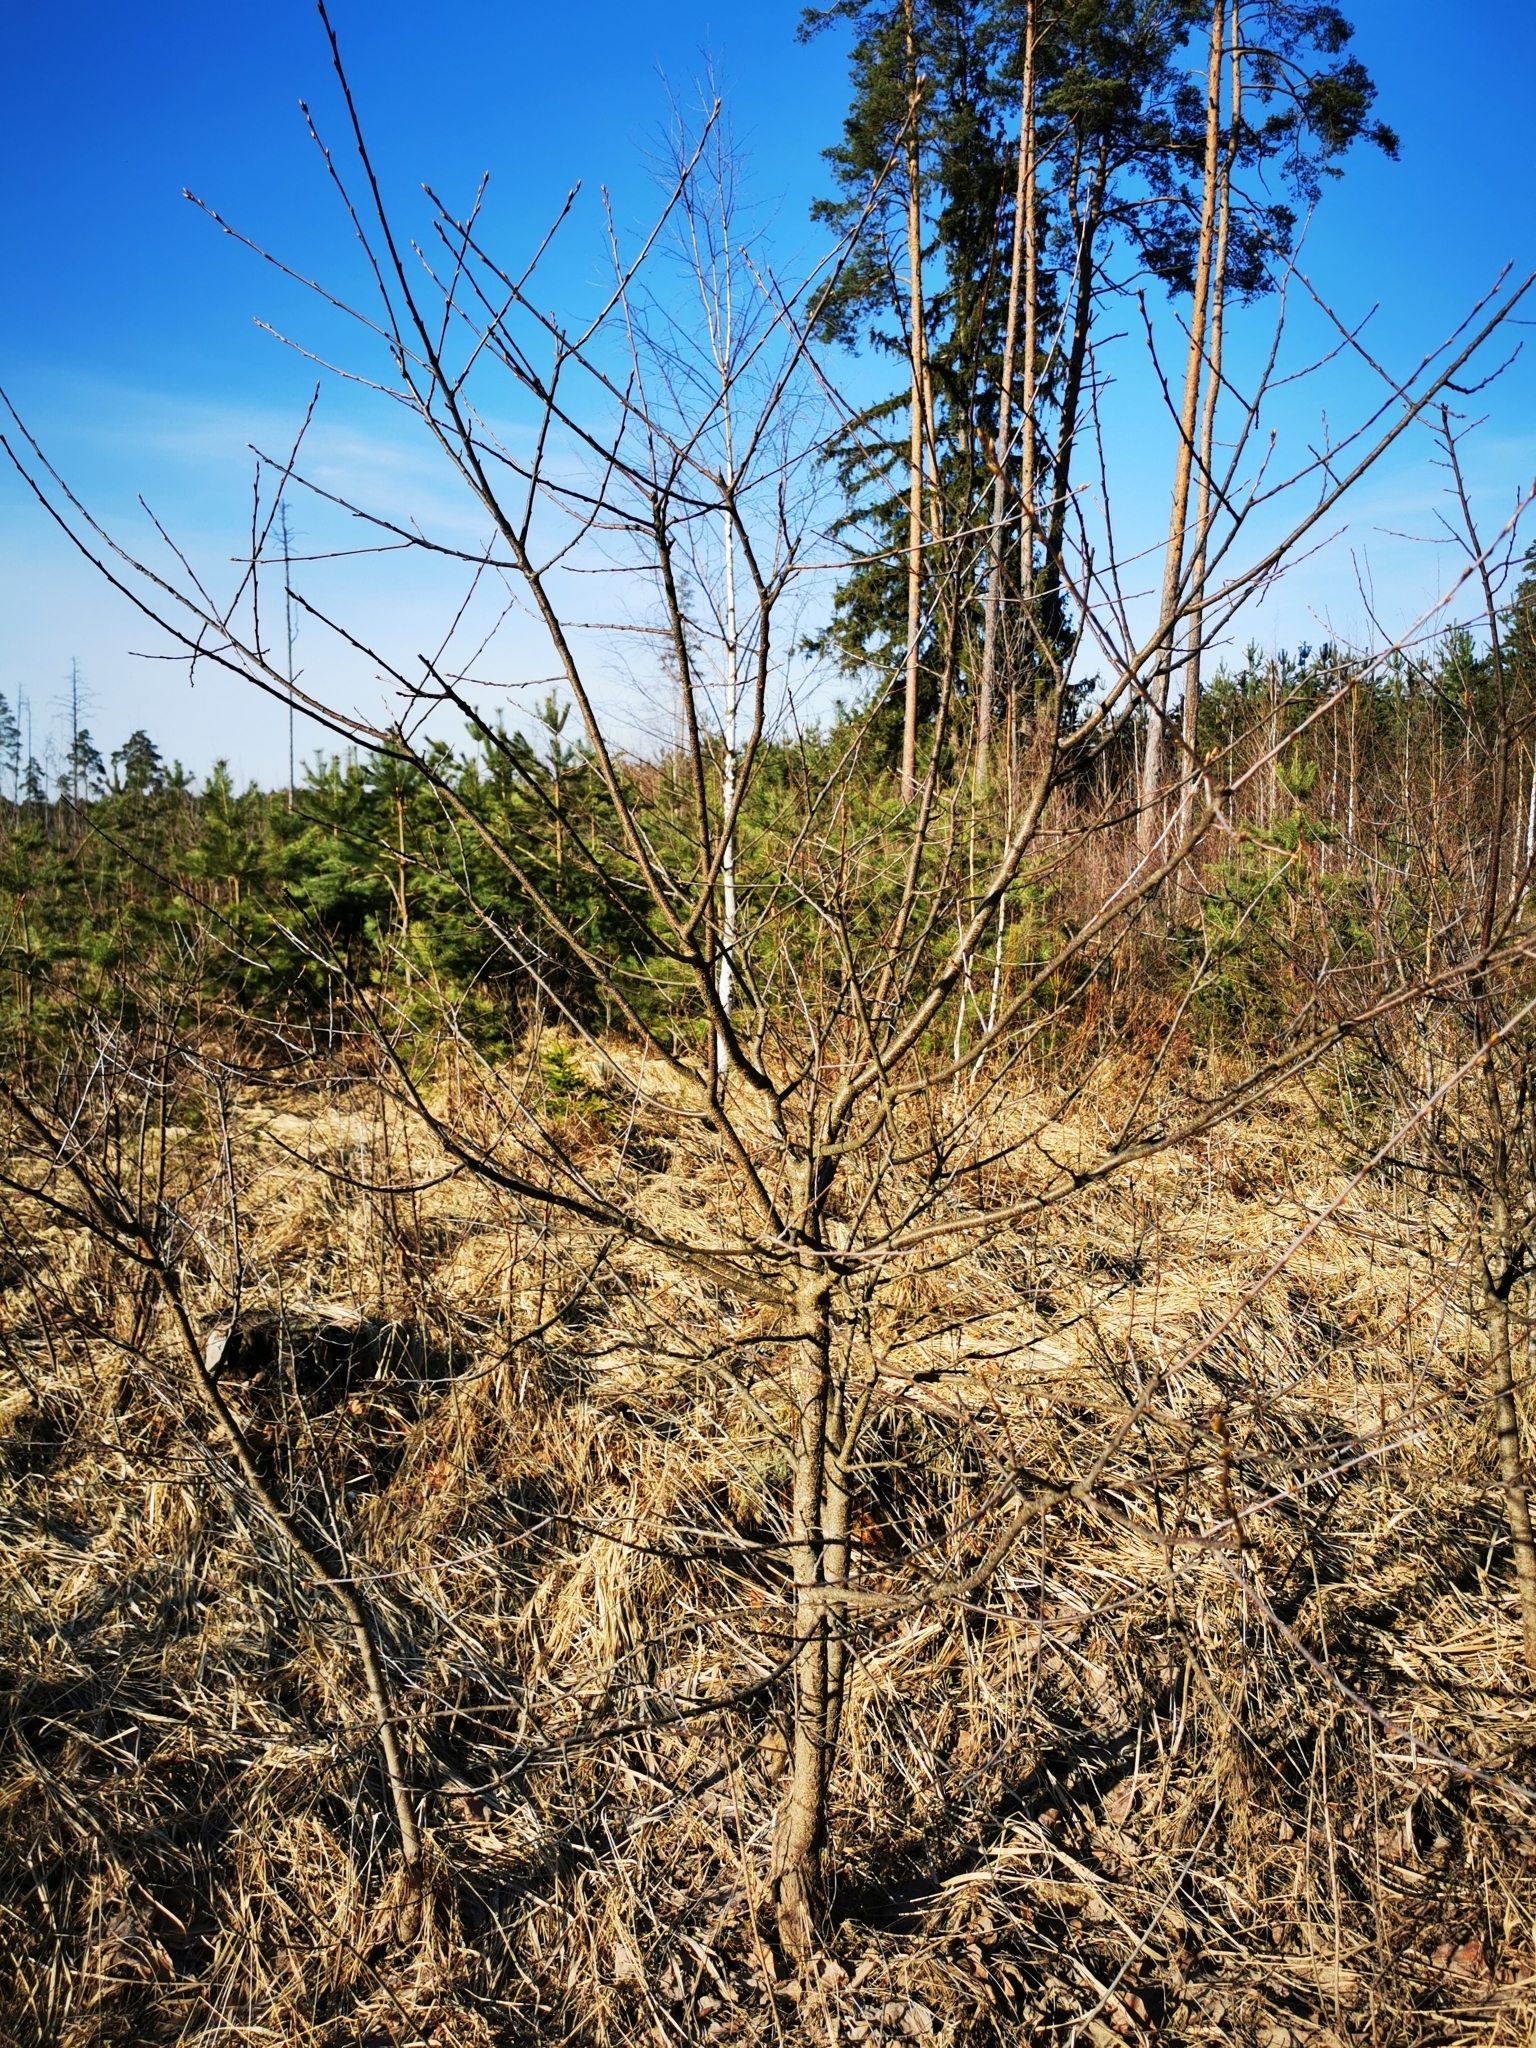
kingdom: Plantae
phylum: Tracheophyta
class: Magnoliopsida
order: Rosales
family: Rosaceae
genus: Prunus
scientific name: Prunus serotina
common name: Black cherry
